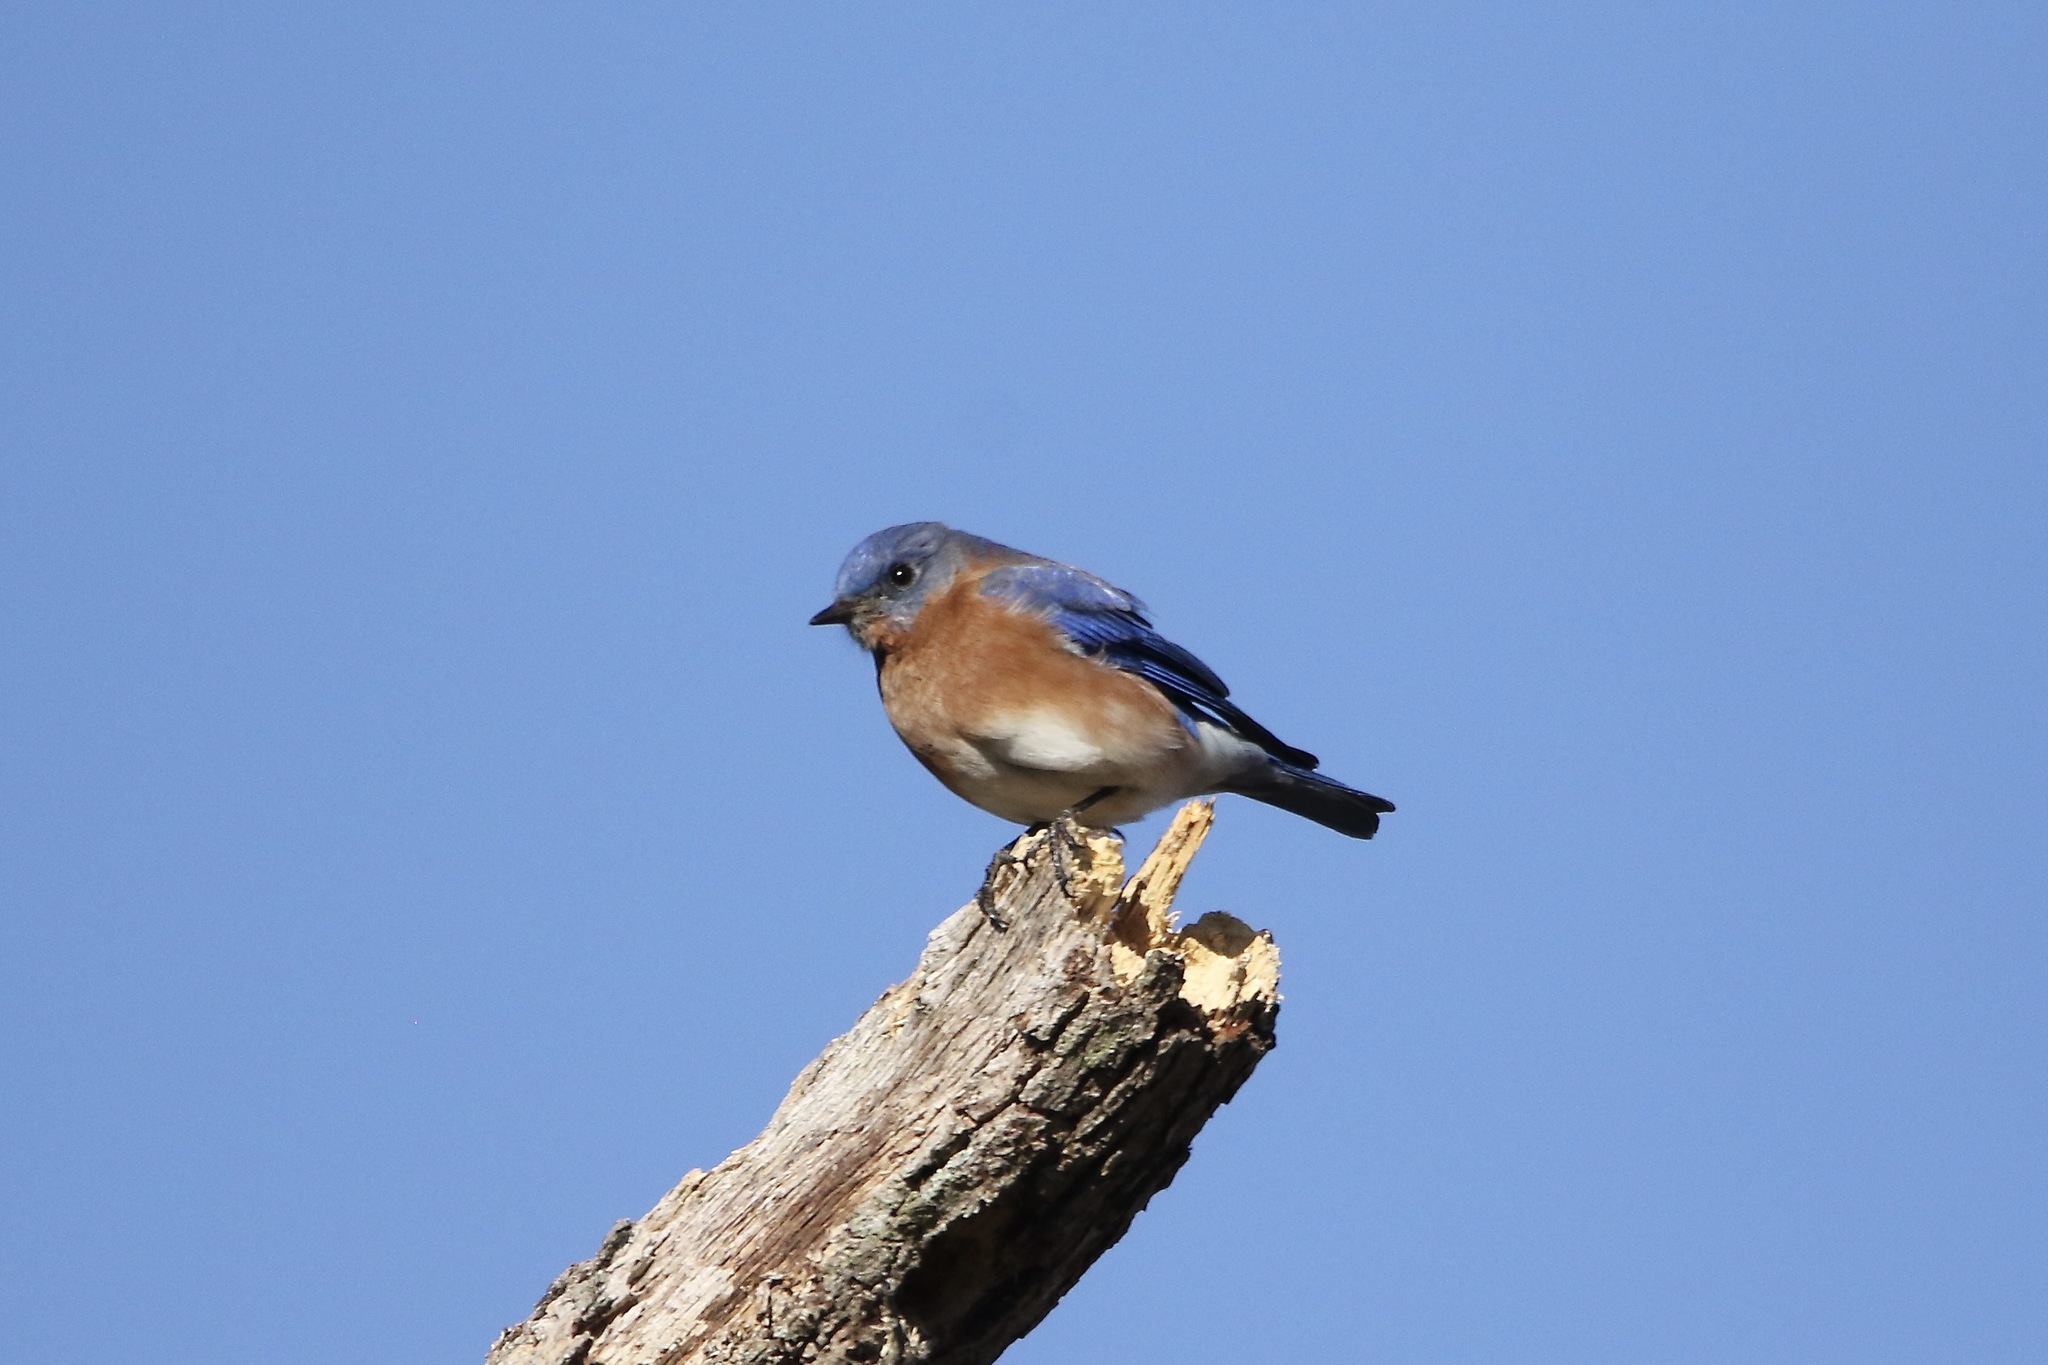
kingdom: Animalia
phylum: Chordata
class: Aves
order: Passeriformes
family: Turdidae
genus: Sialia
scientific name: Sialia sialis
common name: Eastern bluebird
